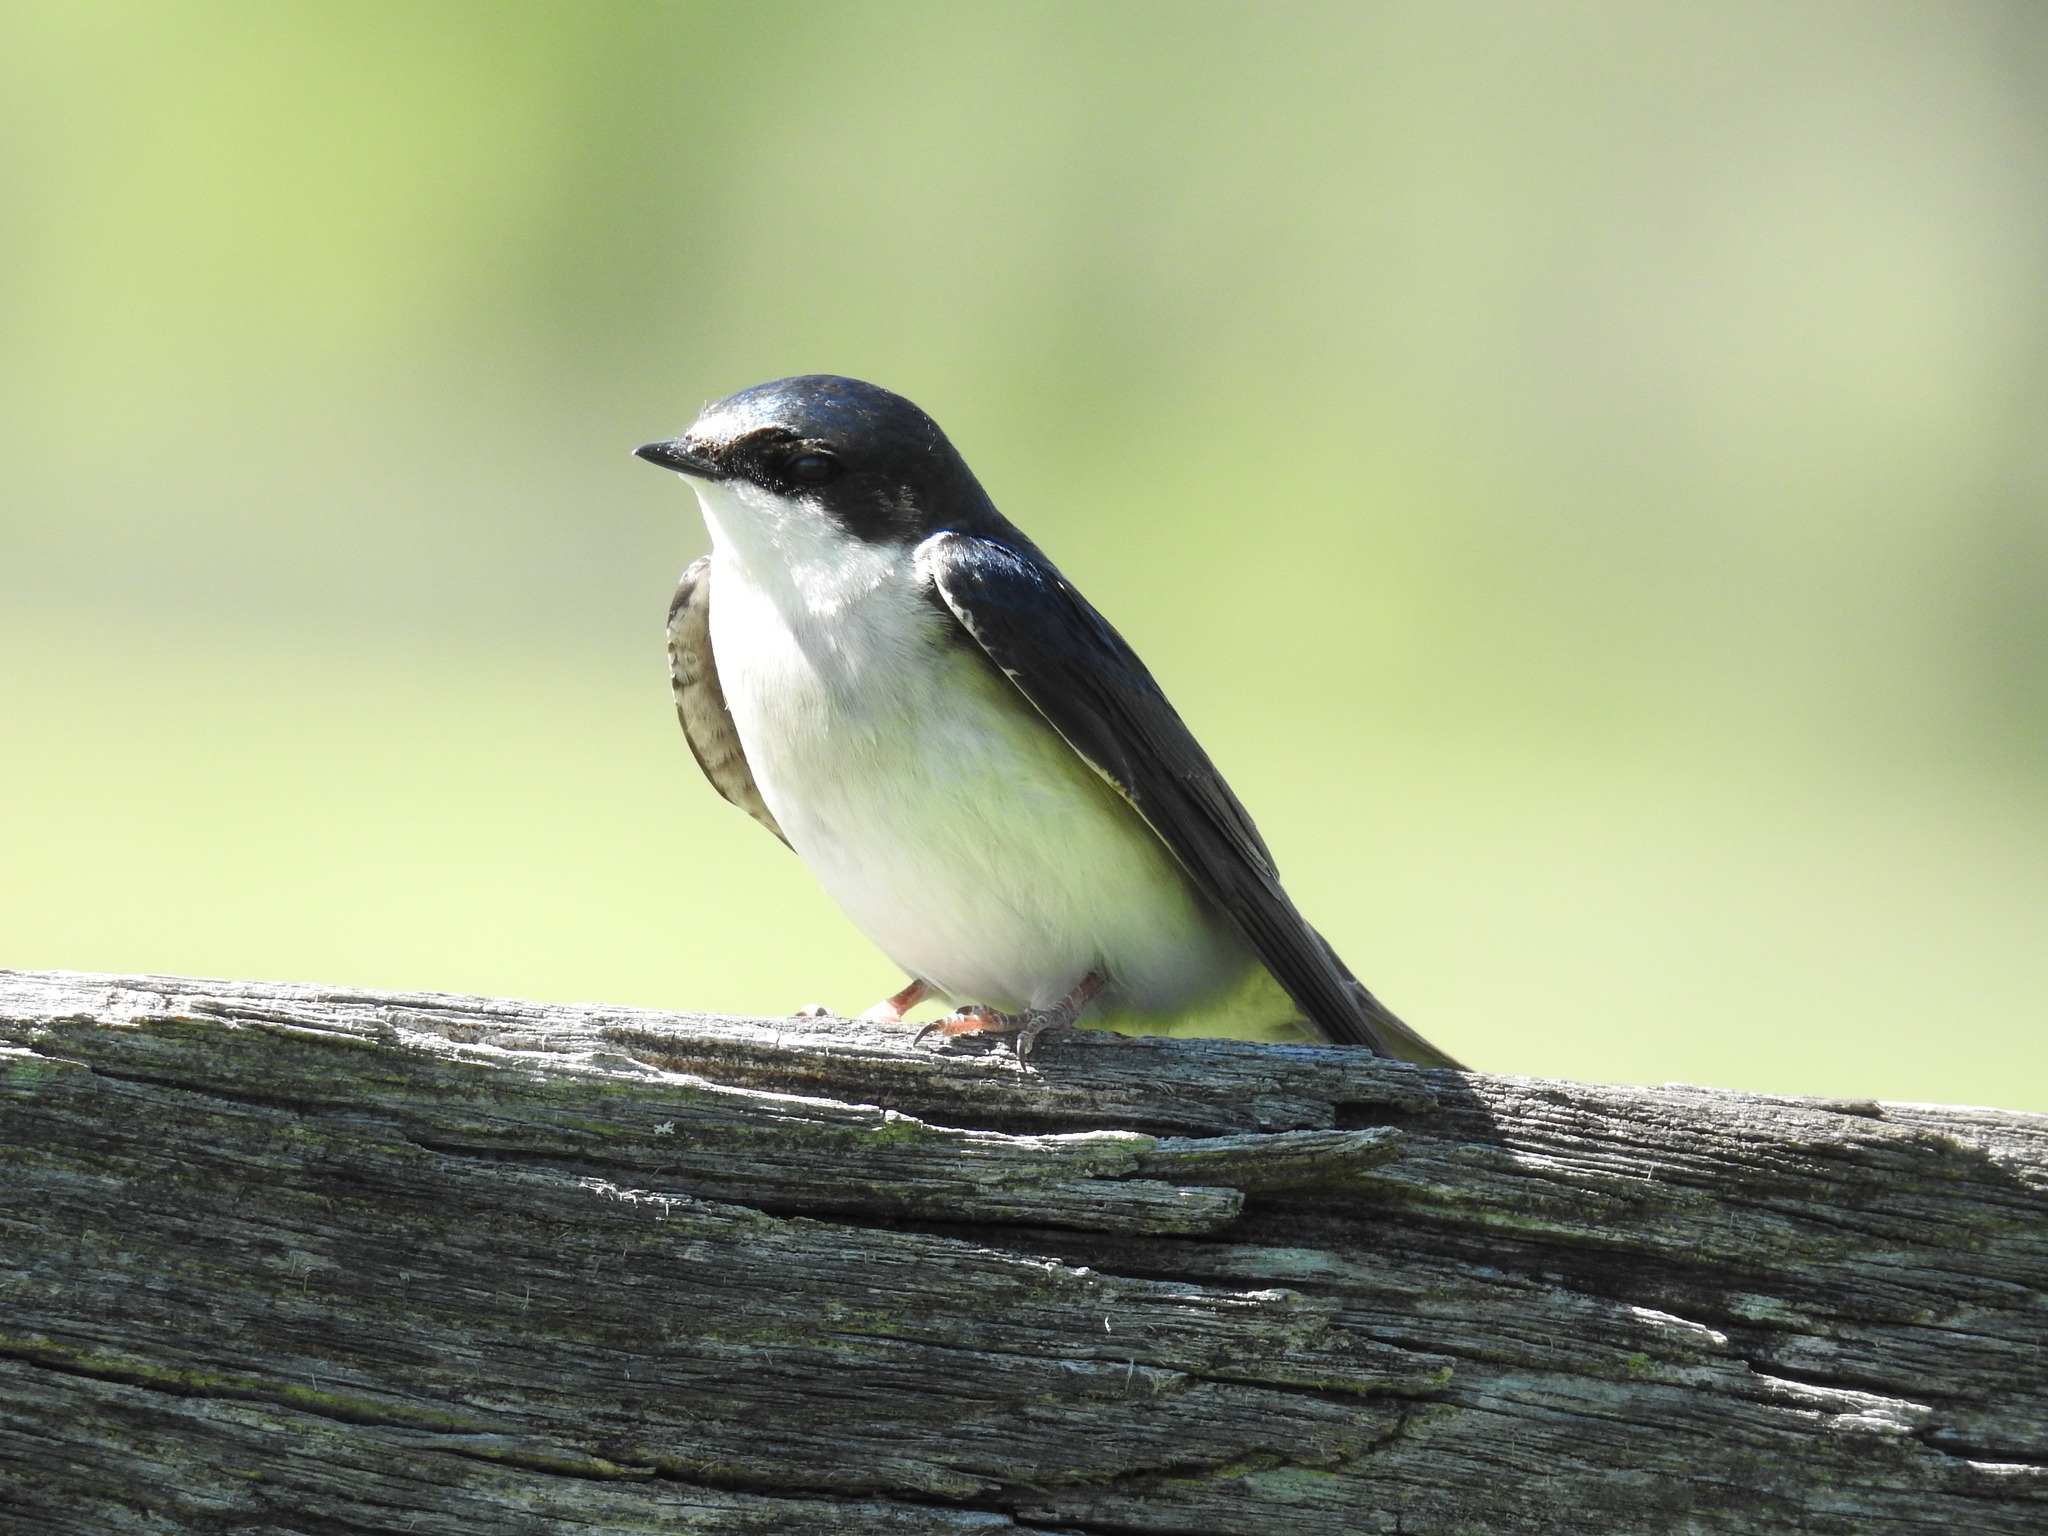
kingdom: Animalia
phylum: Chordata
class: Aves
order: Passeriformes
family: Hirundinidae
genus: Tachycineta
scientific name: Tachycineta bicolor
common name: Tree swallow
